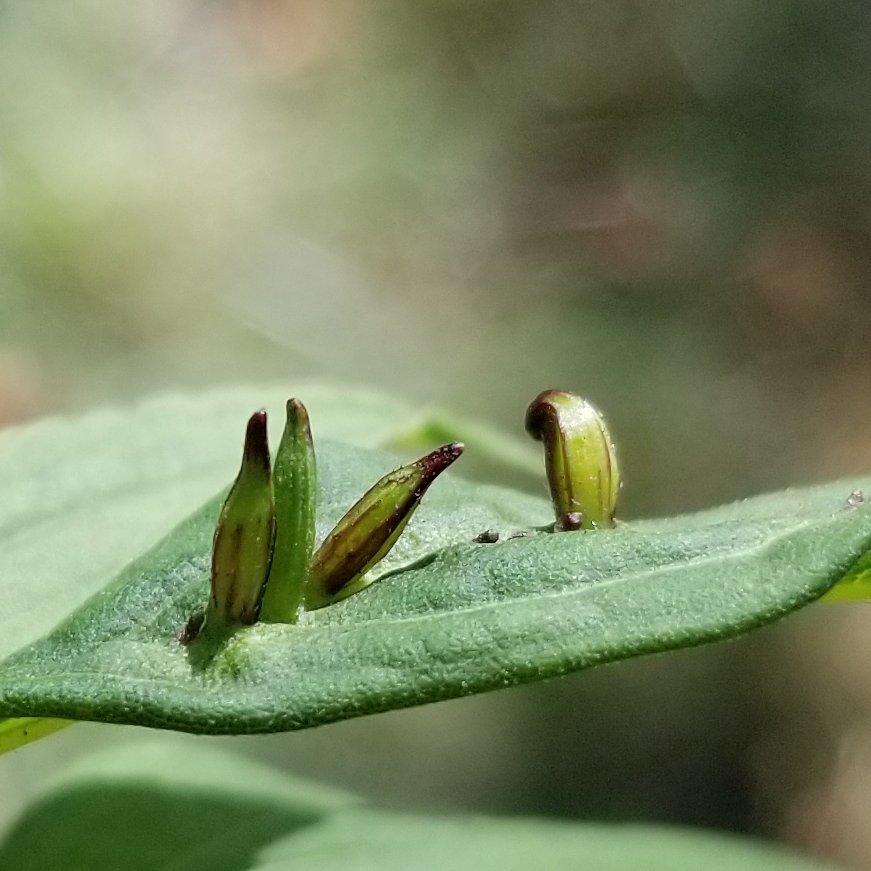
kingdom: Animalia
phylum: Arthropoda
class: Insecta
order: Diptera
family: Cecidomyiidae
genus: Rhopalomyia
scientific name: Rhopalomyia inquisitor
